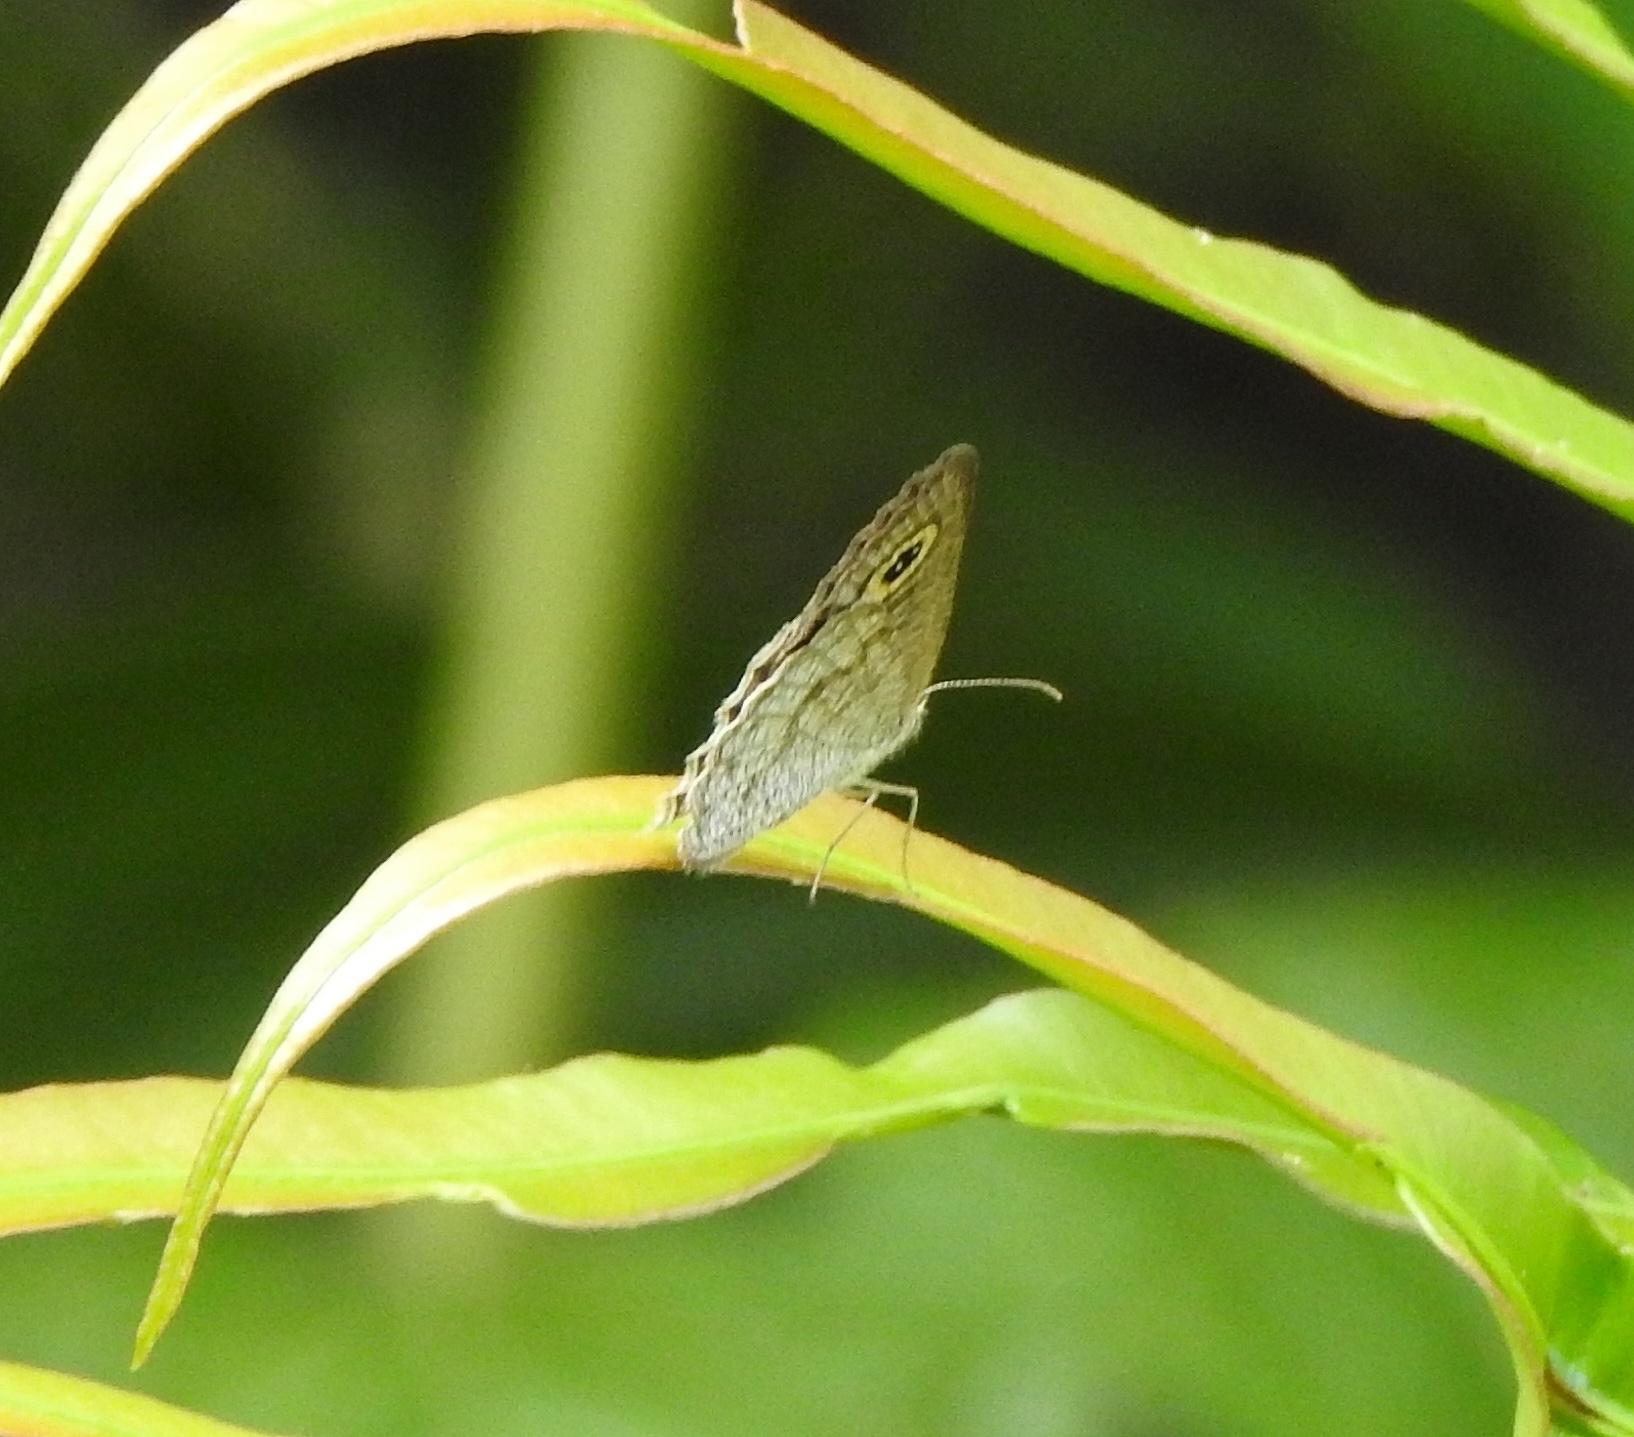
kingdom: Animalia
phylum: Arthropoda
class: Insecta
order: Lepidoptera
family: Nymphalidae
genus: Ypthima
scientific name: Ypthima huebneri
